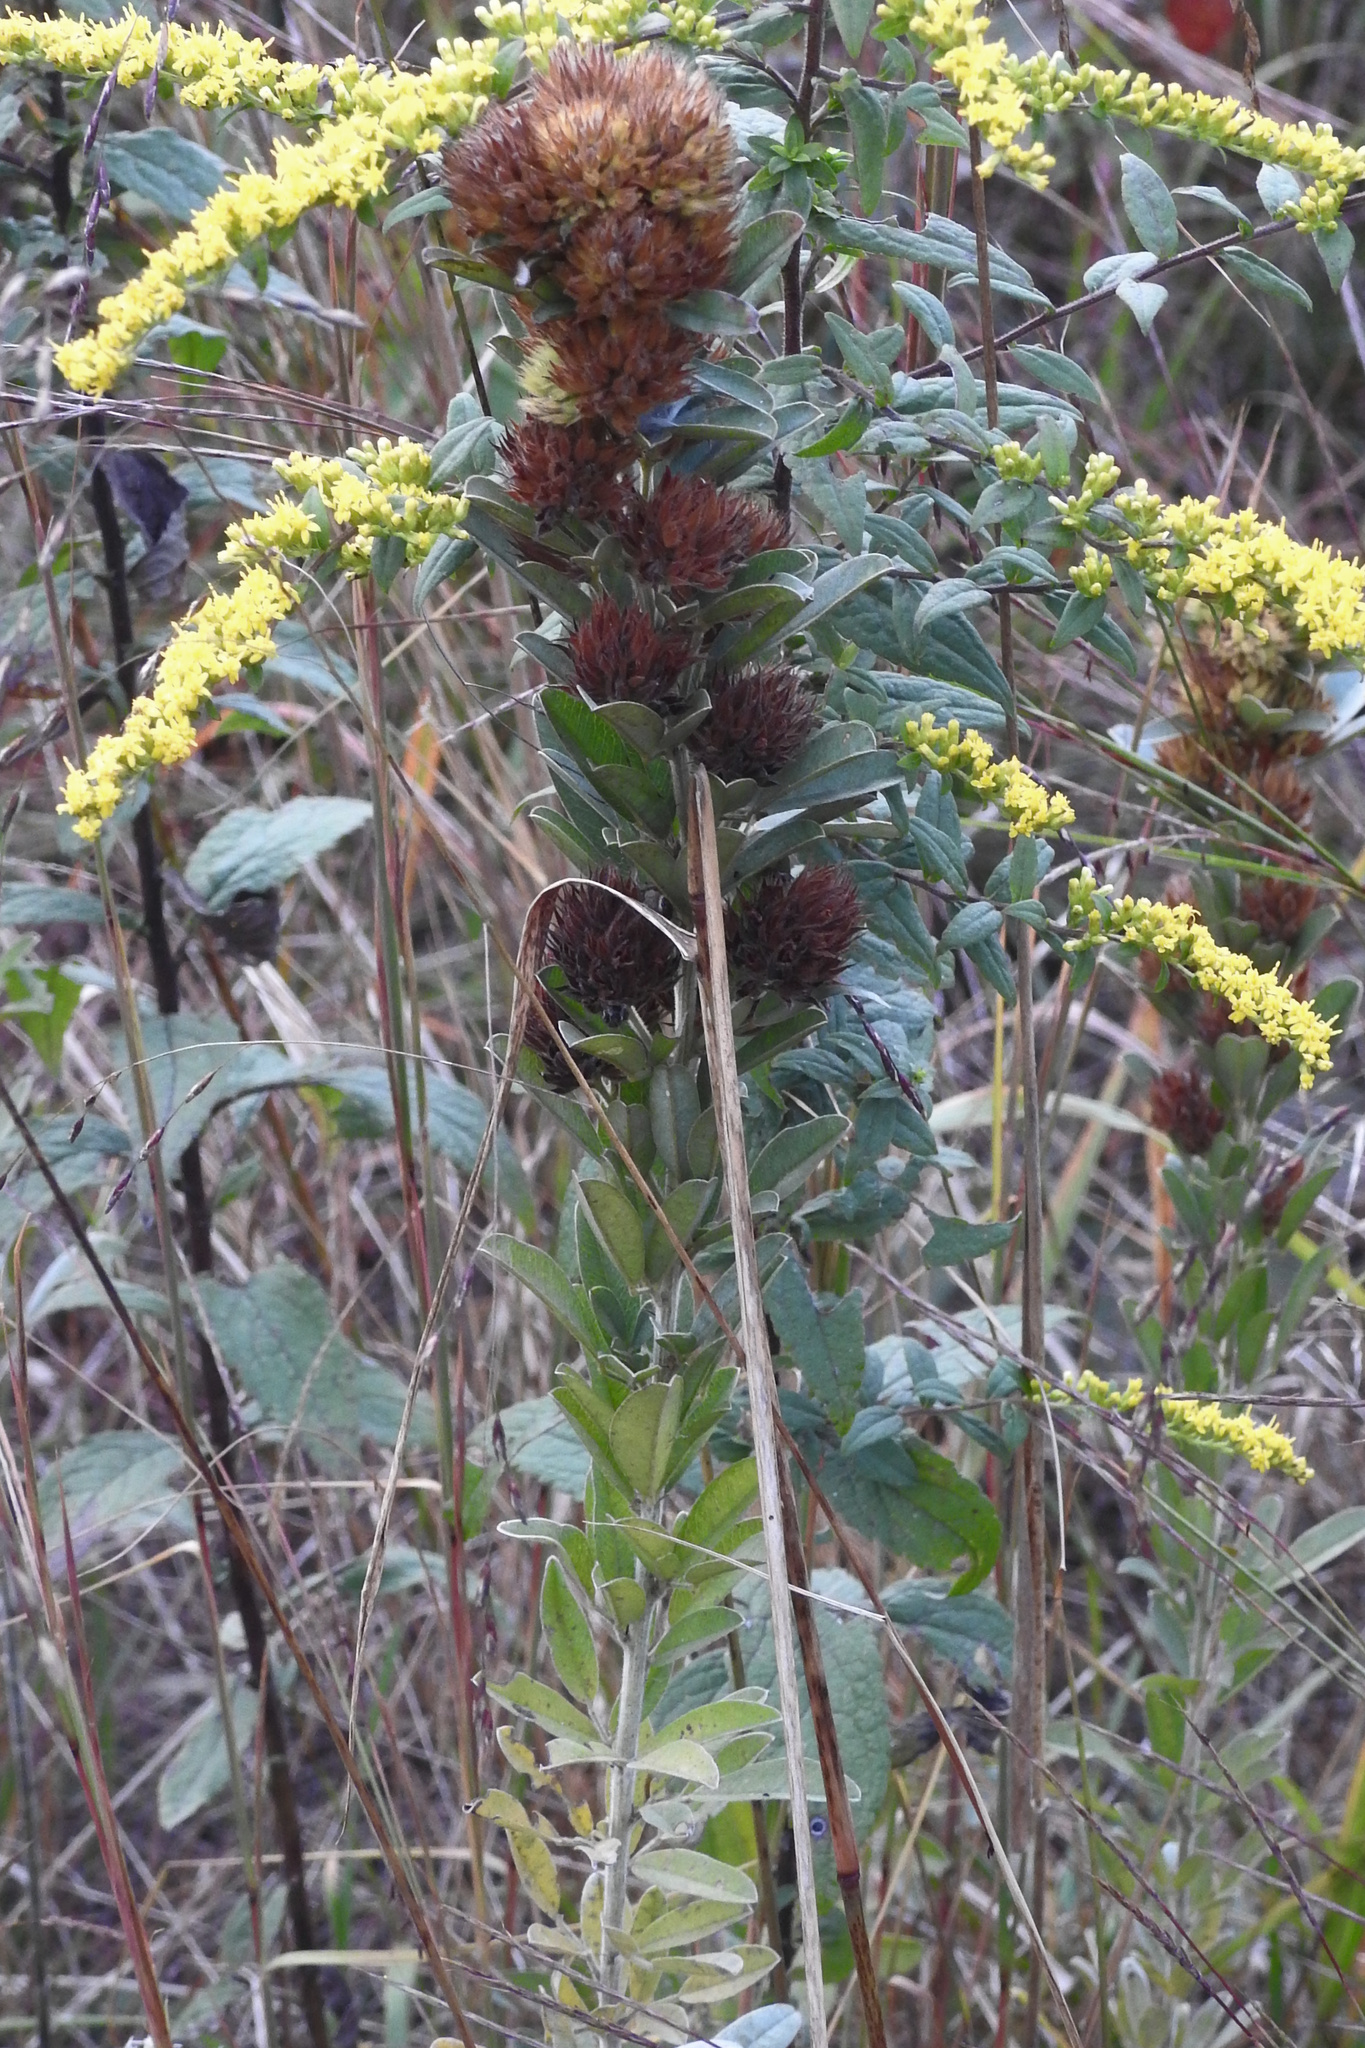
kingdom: Plantae
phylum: Tracheophyta
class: Magnoliopsida
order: Fabales
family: Fabaceae
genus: Lespedeza
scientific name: Lespedeza capitata
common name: Dusty clover
